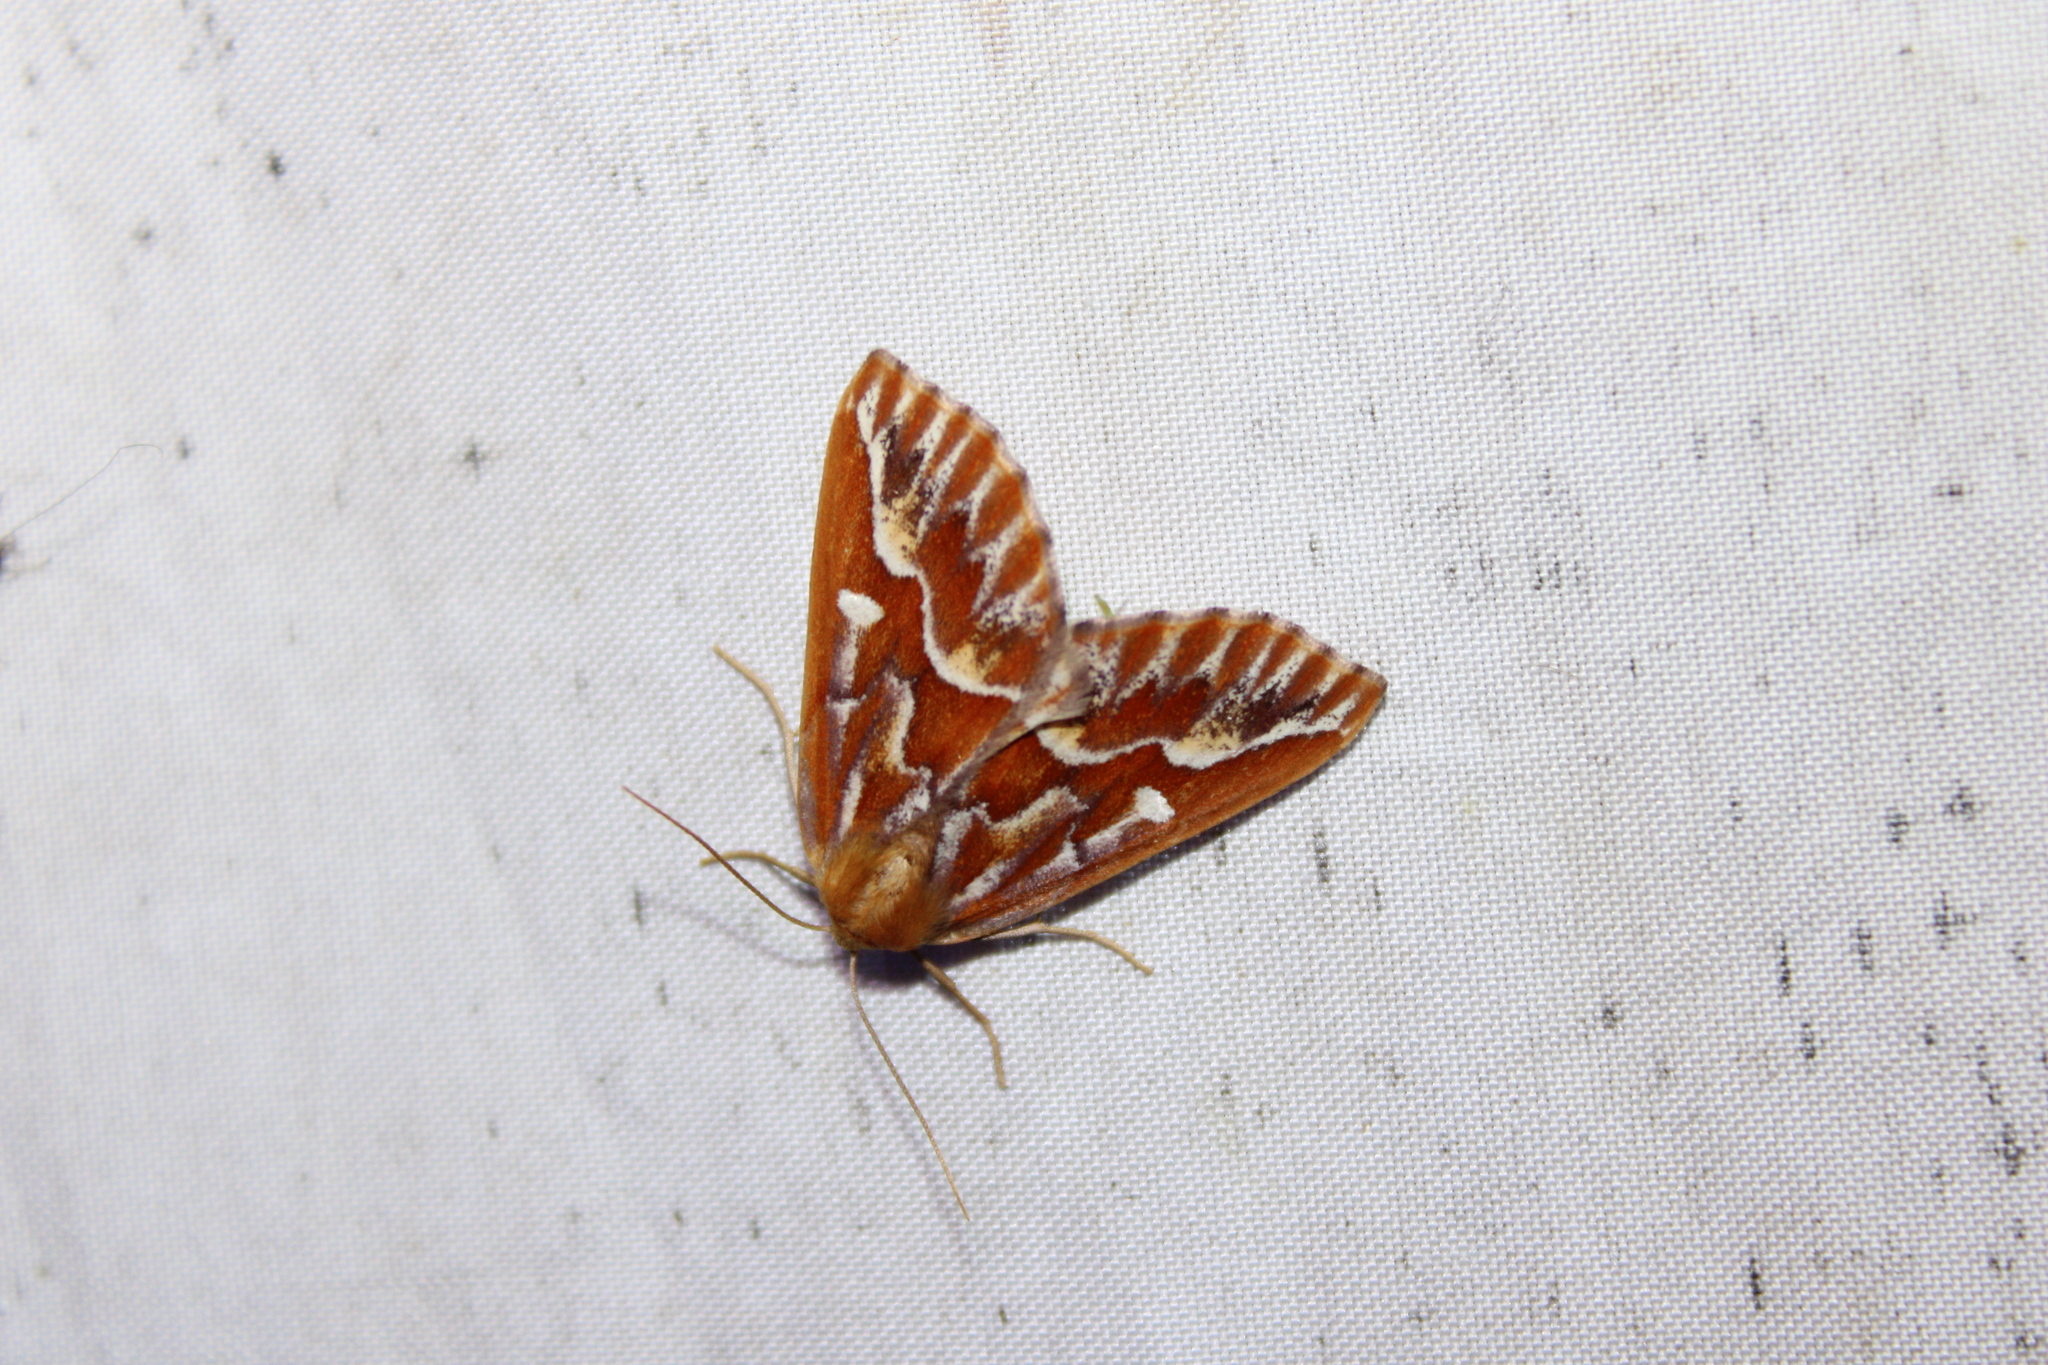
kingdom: Animalia
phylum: Arthropoda
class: Insecta
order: Lepidoptera
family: Geometridae
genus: Caripeta
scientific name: Caripeta piniata
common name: Northern pine looper moth
